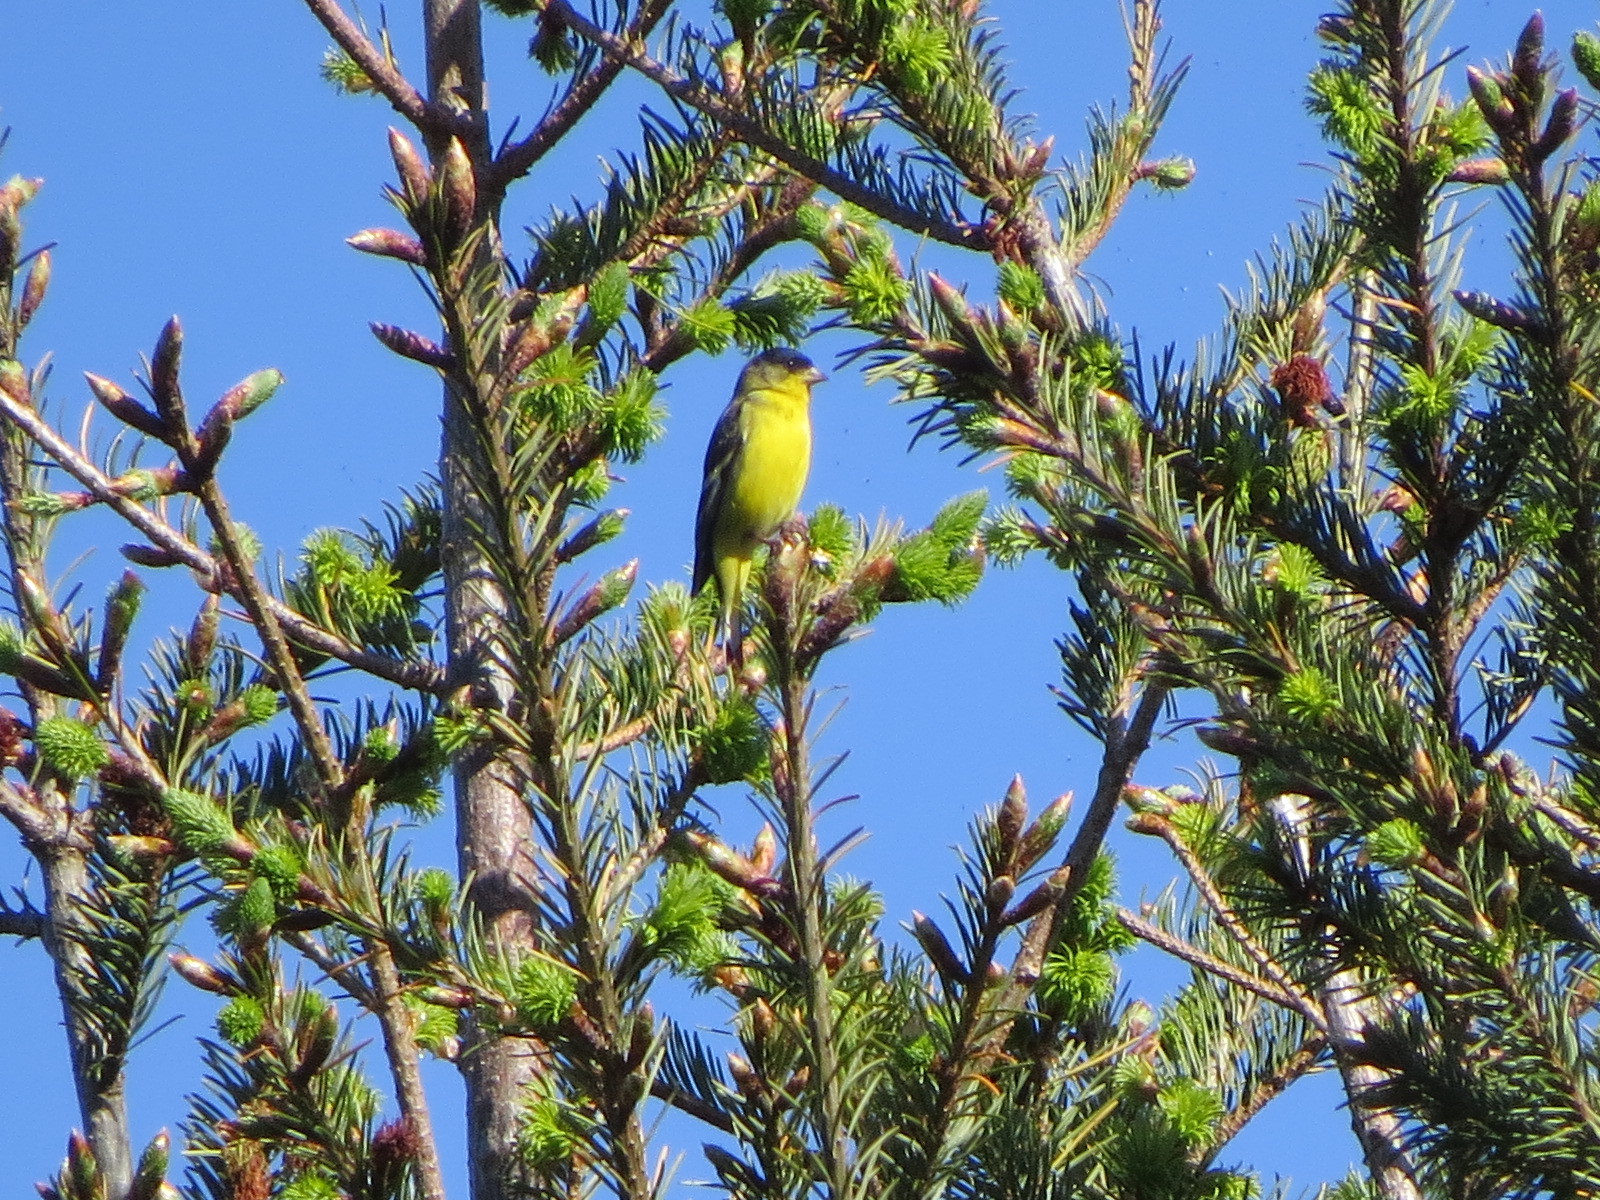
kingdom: Animalia
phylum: Chordata
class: Aves
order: Passeriformes
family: Fringillidae
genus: Spinus
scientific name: Spinus psaltria
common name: Lesser goldfinch
